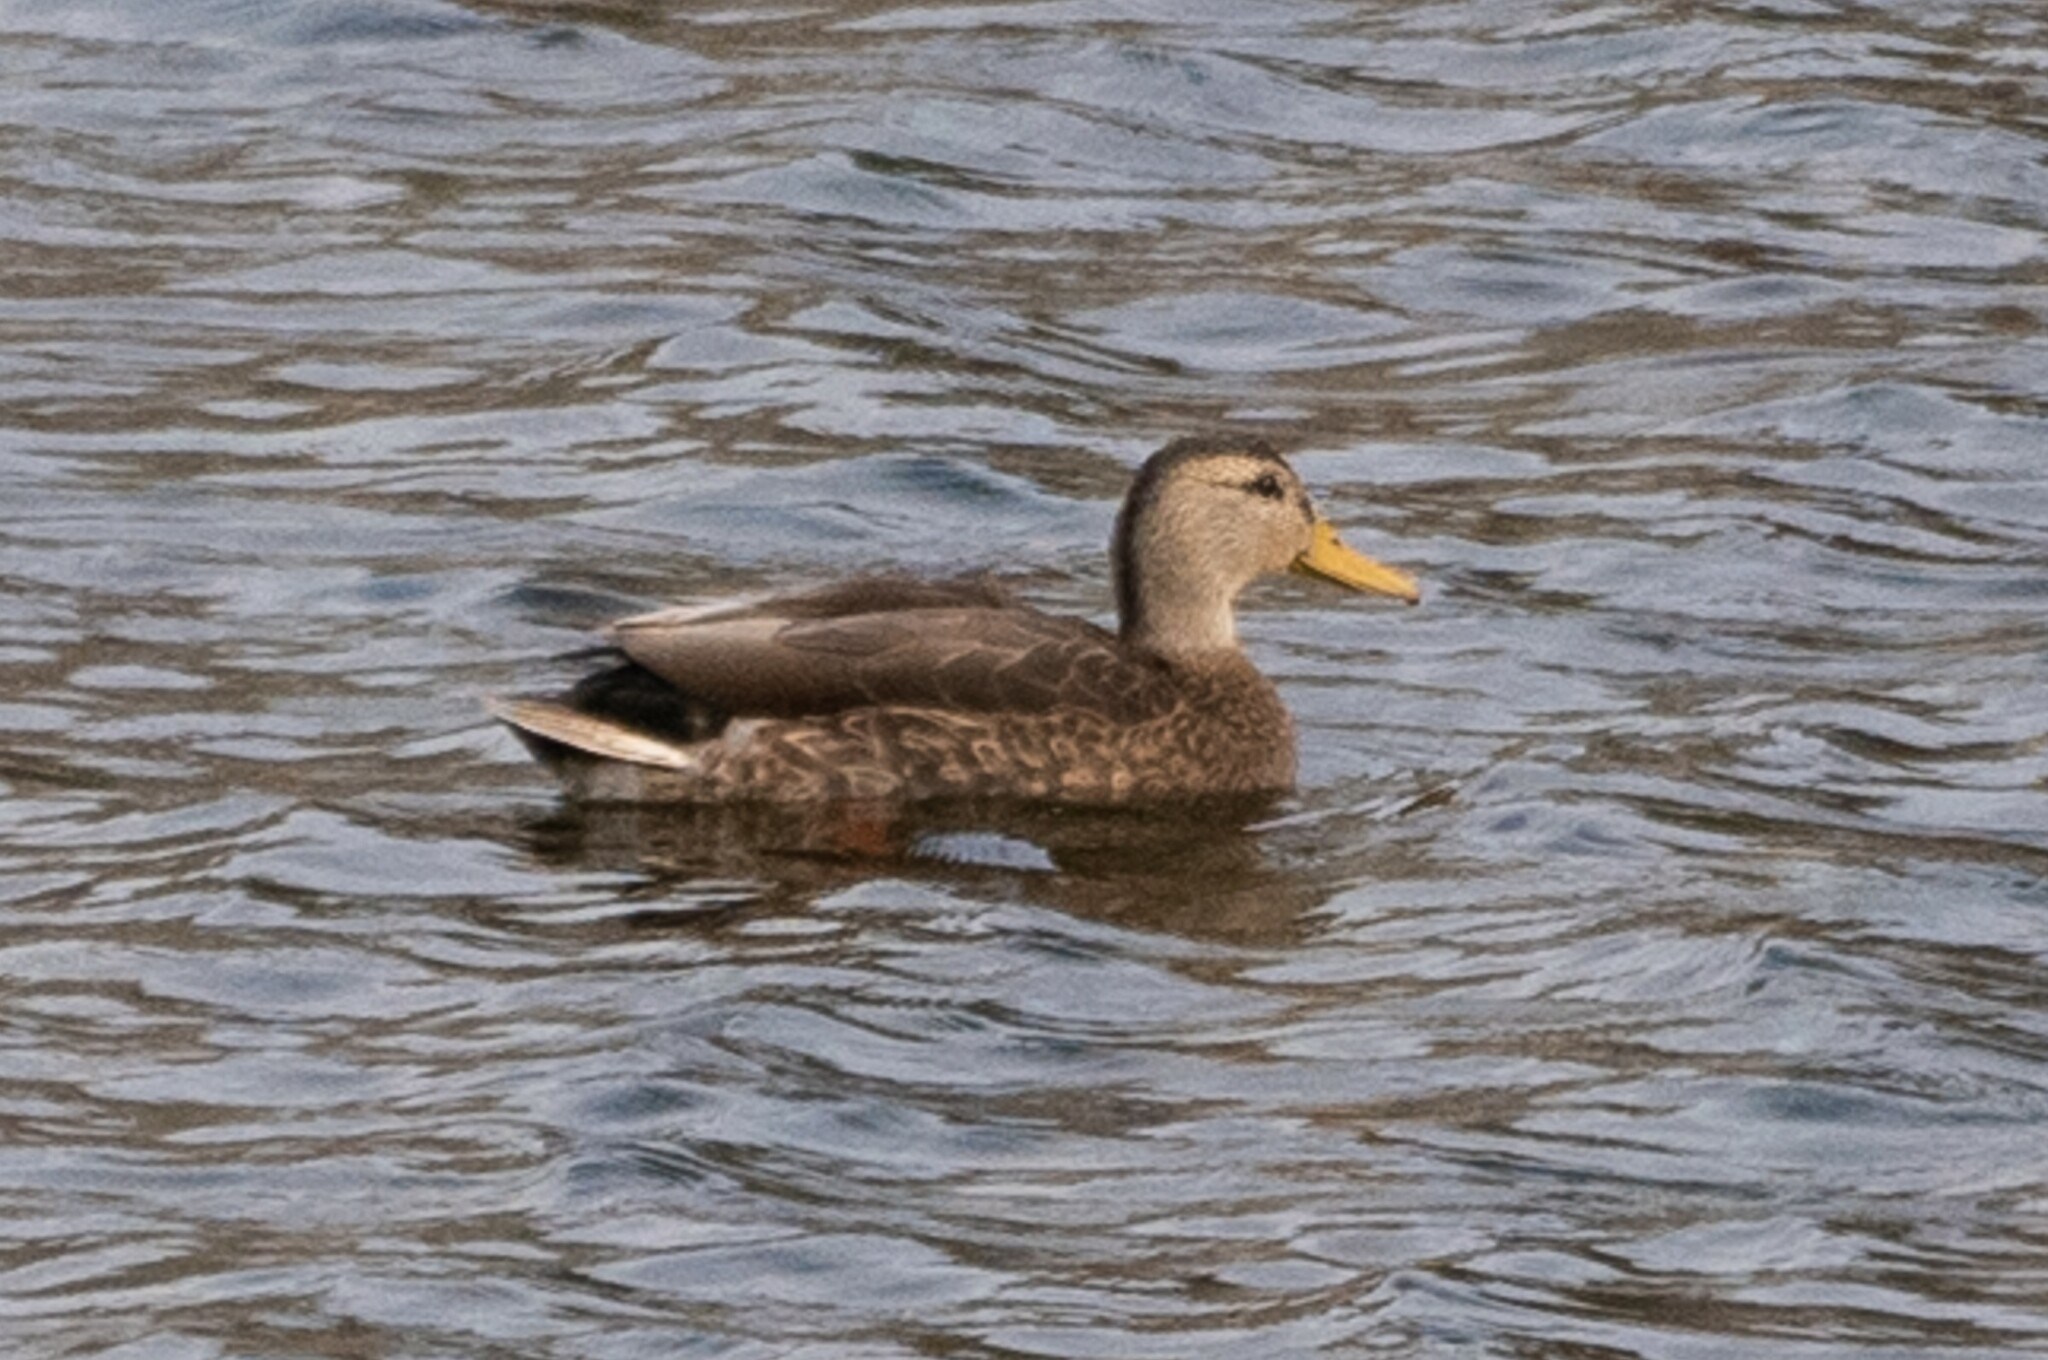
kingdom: Animalia
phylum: Chordata
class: Aves
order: Anseriformes
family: Anatidae
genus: Anas
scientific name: Anas
